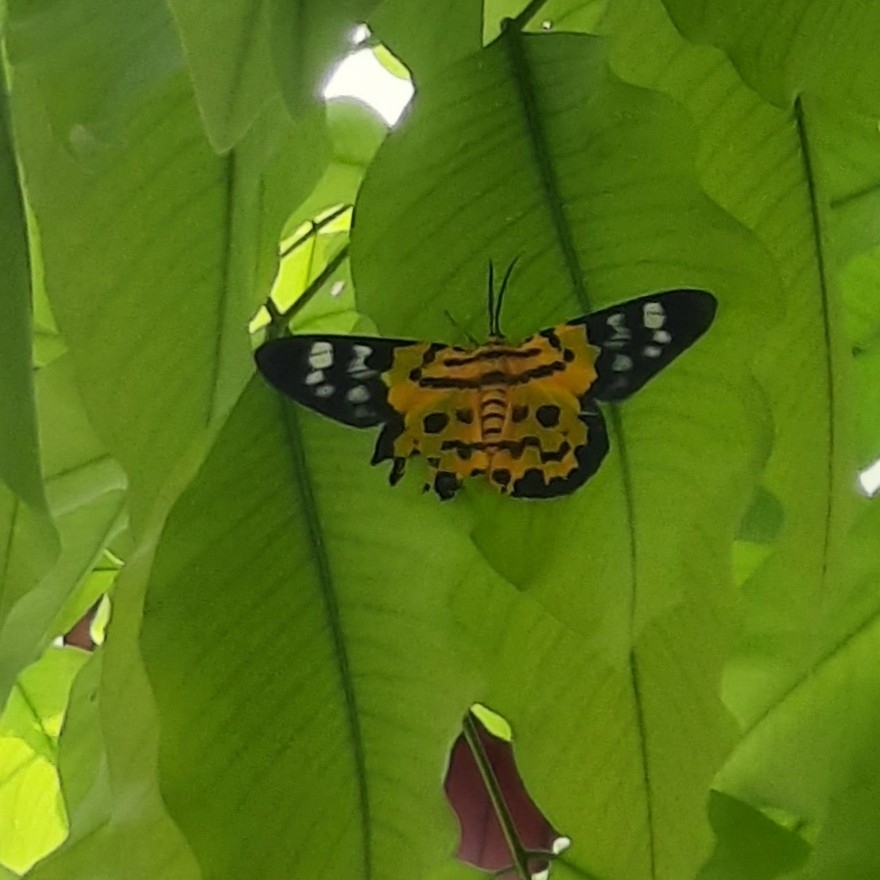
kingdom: Animalia
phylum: Arthropoda
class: Insecta
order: Lepidoptera
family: Geometridae
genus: Dysphania
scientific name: Dysphania militaris
